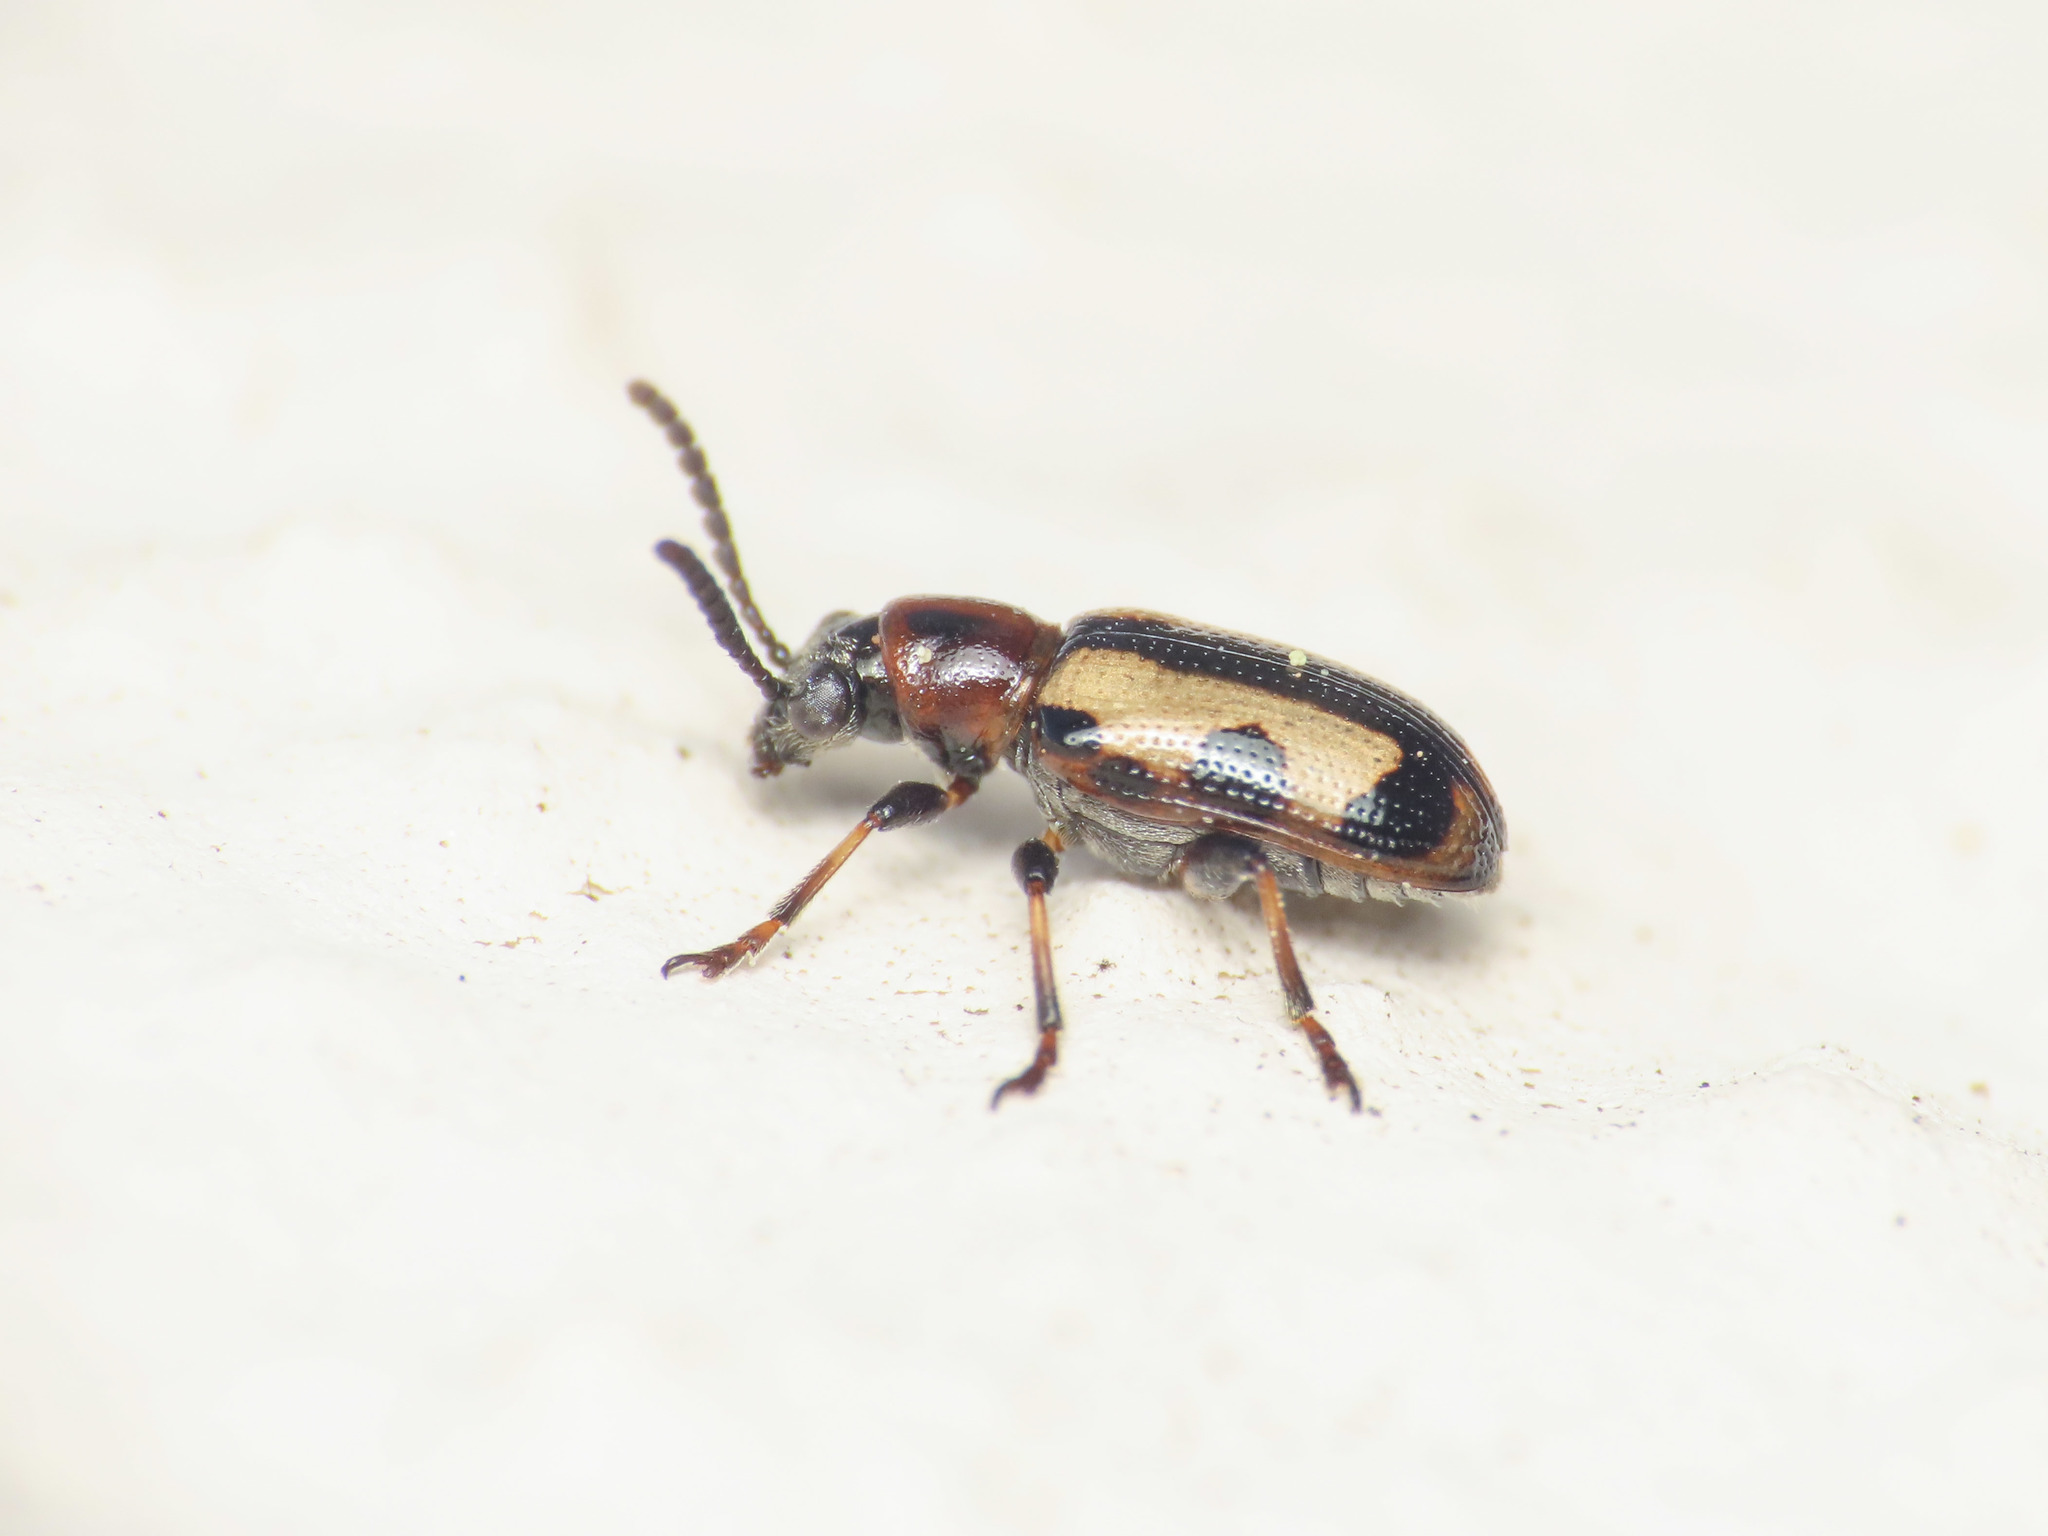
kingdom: Animalia
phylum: Arthropoda
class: Insecta
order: Coleoptera
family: Chrysomelidae
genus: Crioceris
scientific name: Crioceris paracenthesis
